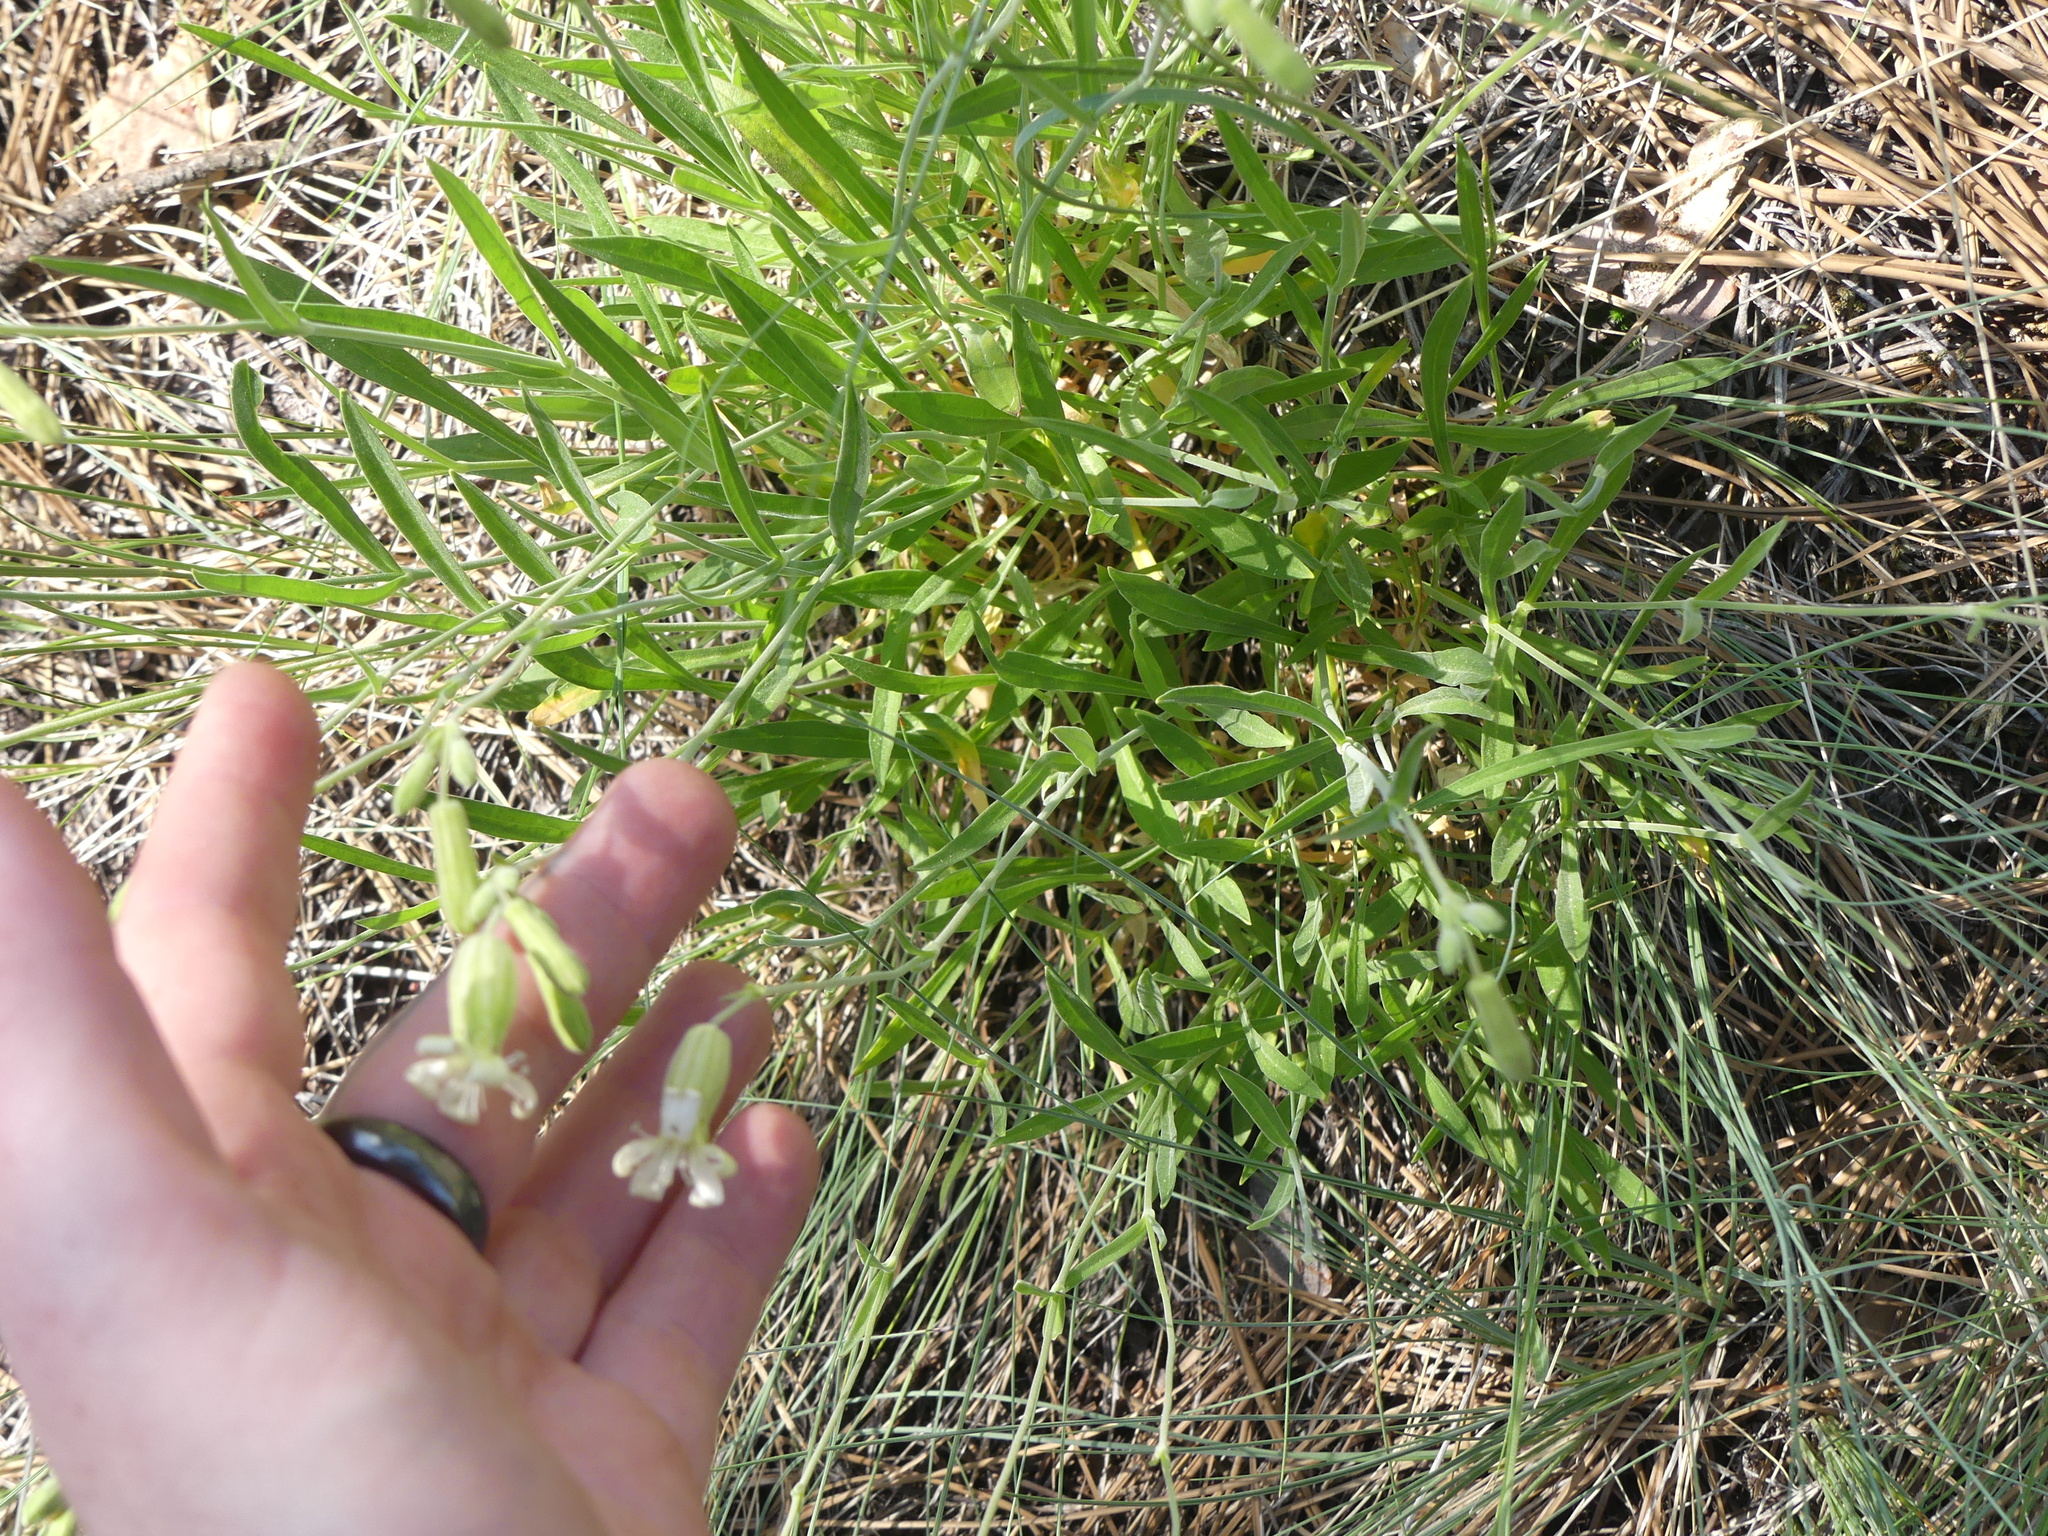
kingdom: Plantae
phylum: Tracheophyta
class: Magnoliopsida
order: Caryophyllales
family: Caryophyllaceae
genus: Silene
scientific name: Silene douglasii
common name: Douglas's catchfly
